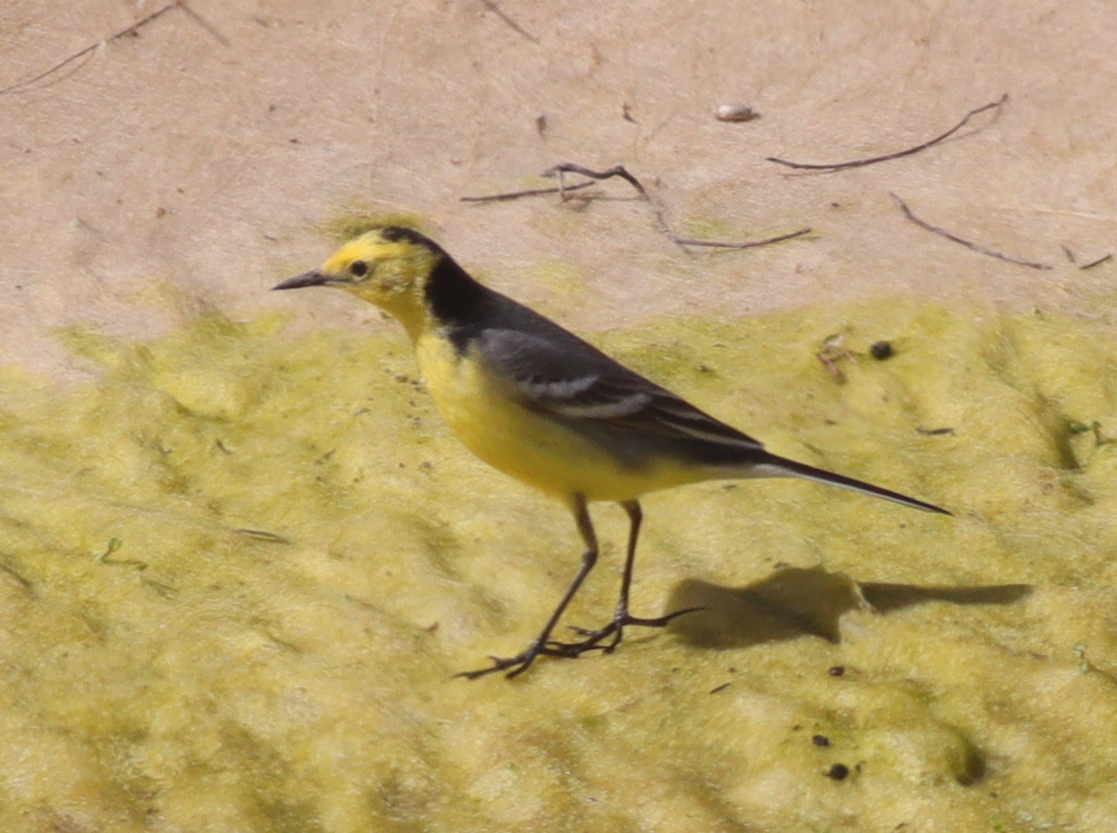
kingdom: Animalia
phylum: Chordata
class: Aves
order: Passeriformes
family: Motacillidae
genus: Motacilla
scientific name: Motacilla citreola
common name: Citrine wagtail
